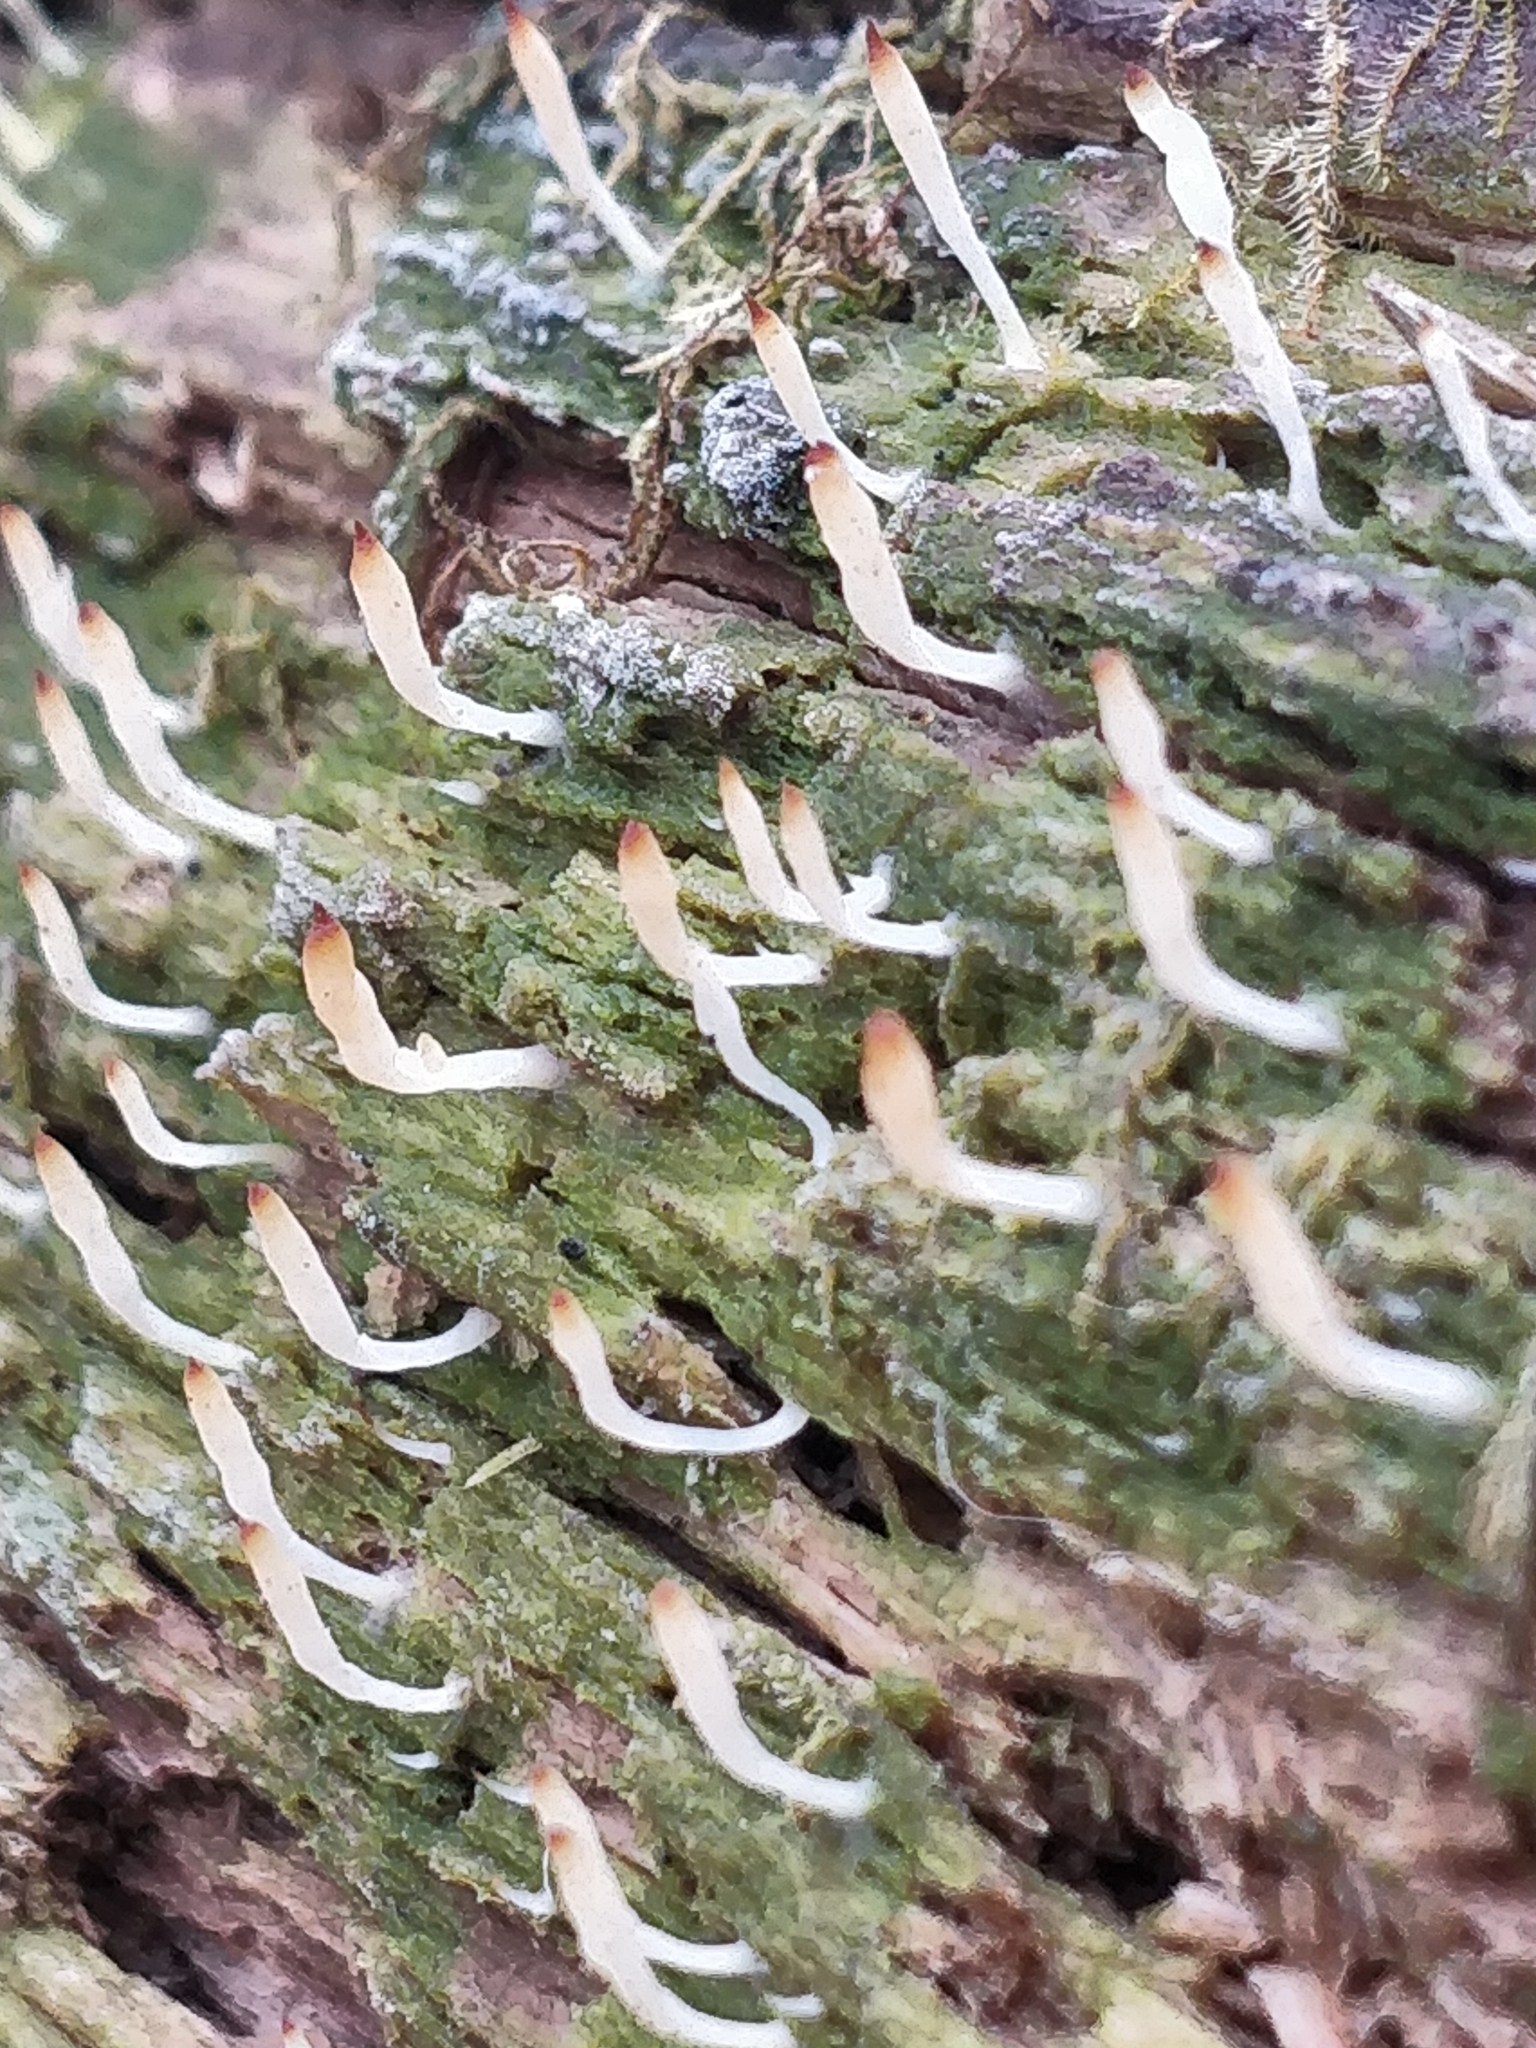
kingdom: Fungi
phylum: Basidiomycota
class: Agaricomycetes
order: Cantharellales
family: Hydnaceae
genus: Multiclavula
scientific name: Multiclavula mucida
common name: White green-algae coral
